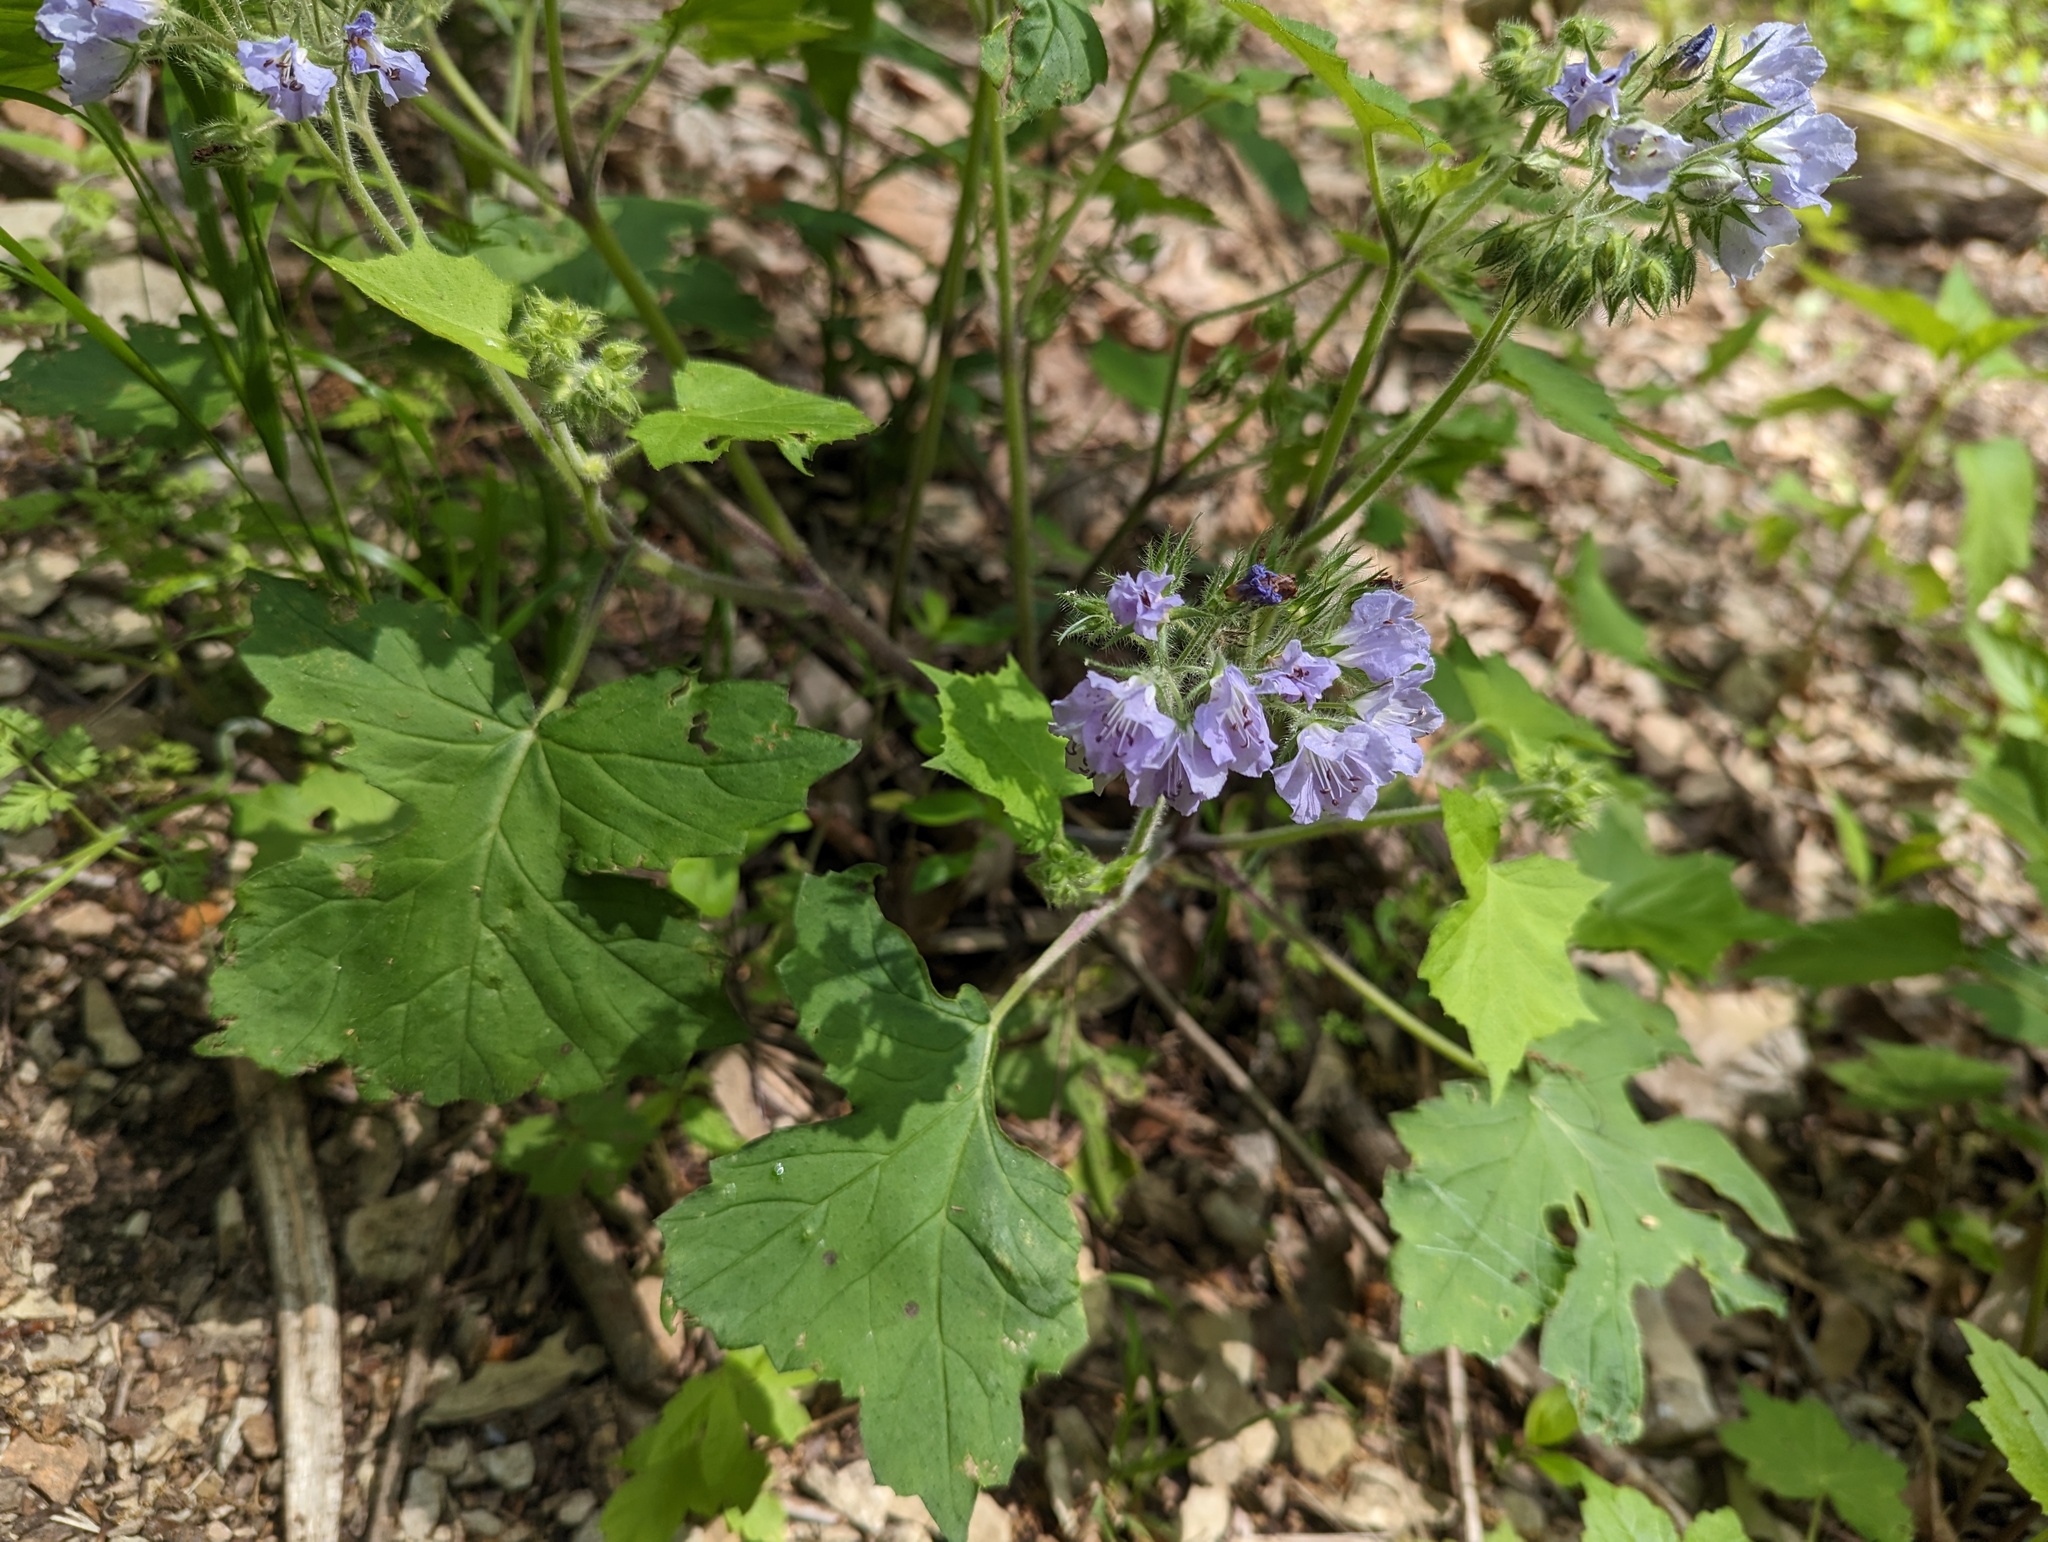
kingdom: Plantae
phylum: Tracheophyta
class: Magnoliopsida
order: Boraginales
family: Hydrophyllaceae
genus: Hydrophyllum
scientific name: Hydrophyllum appendiculatum
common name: Appendaged waterleaf
